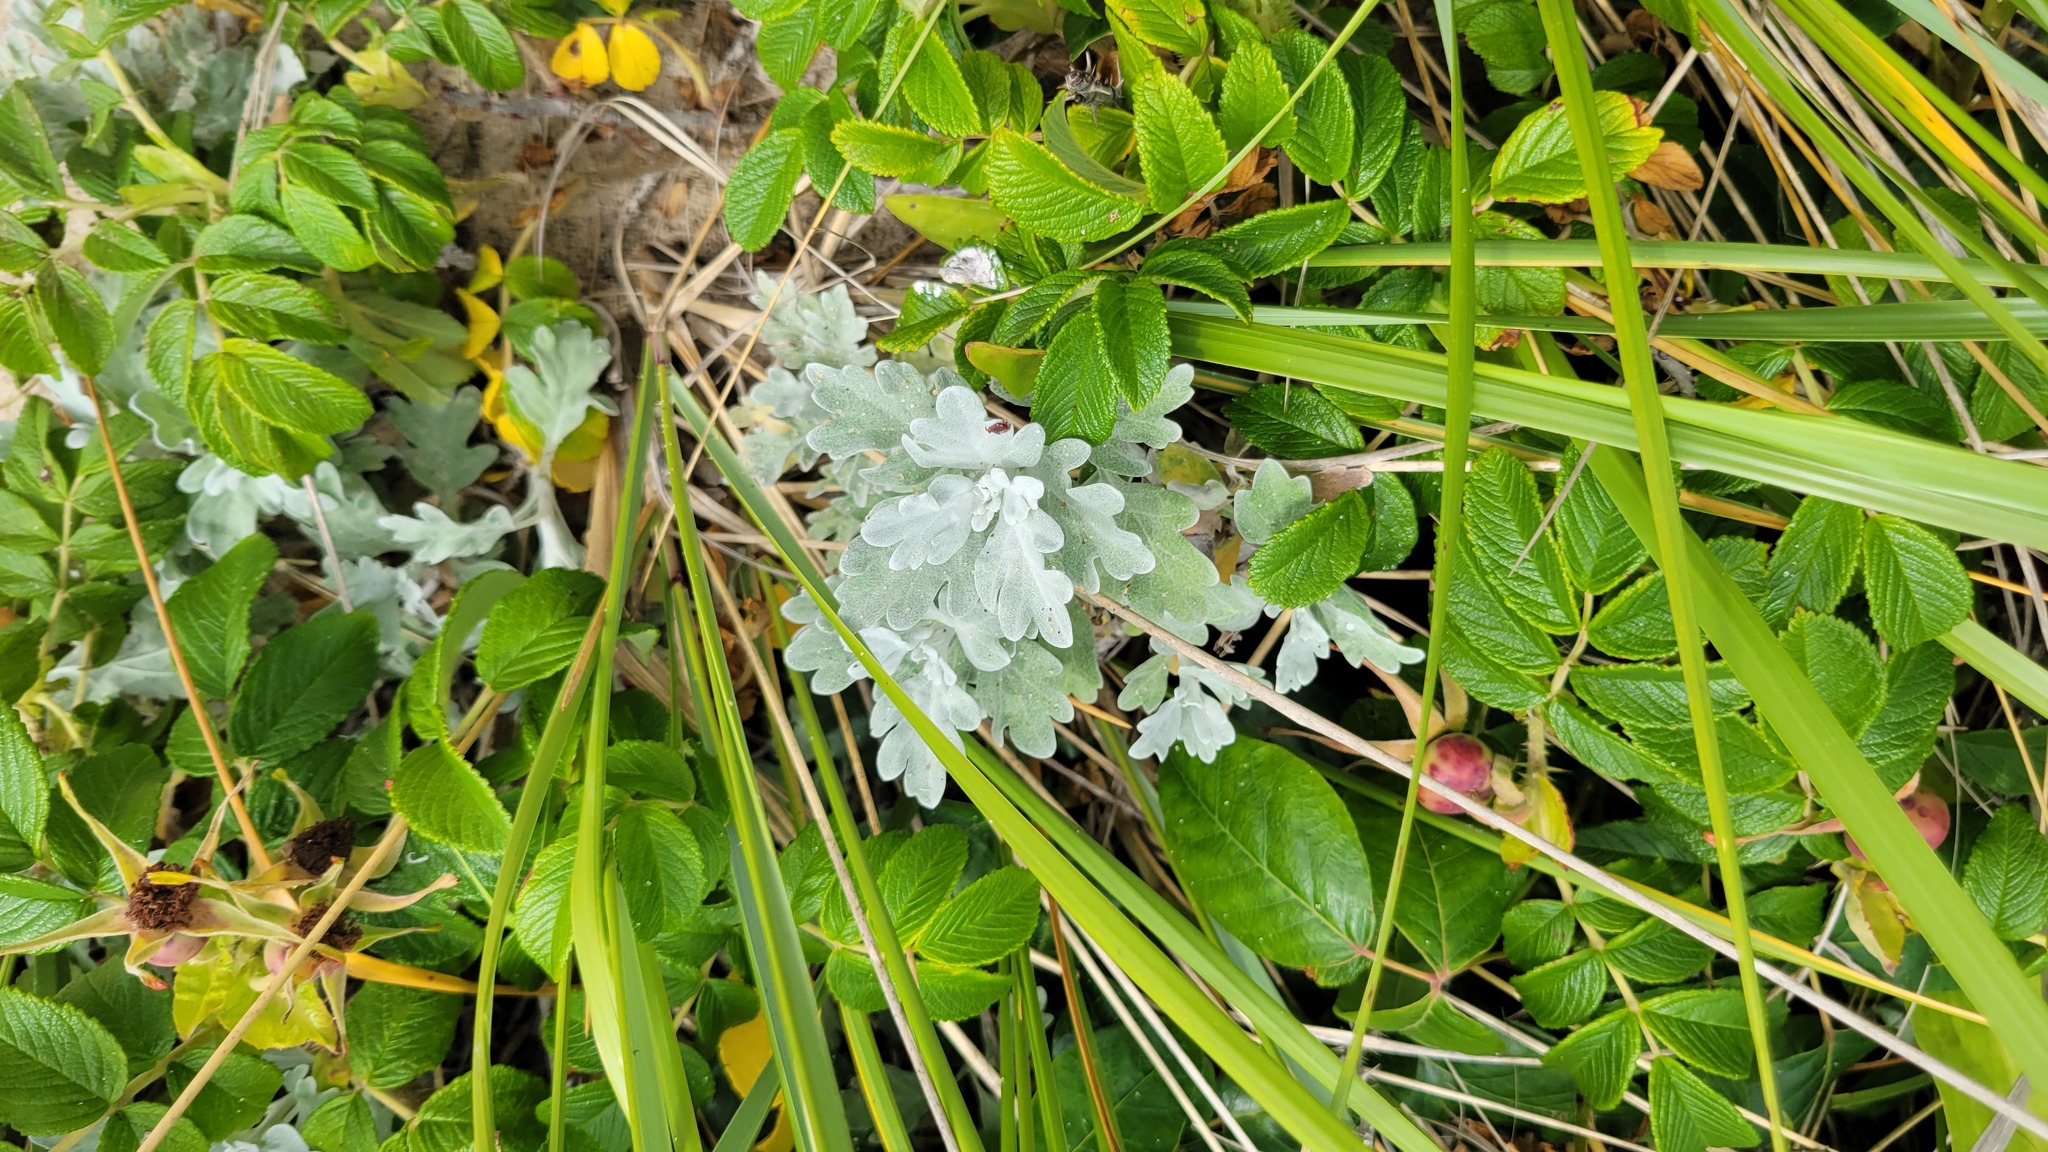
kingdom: Plantae
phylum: Tracheophyta
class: Magnoliopsida
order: Asterales
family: Asteraceae
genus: Artemisia
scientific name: Artemisia stelleriana
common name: Beach wormwood
